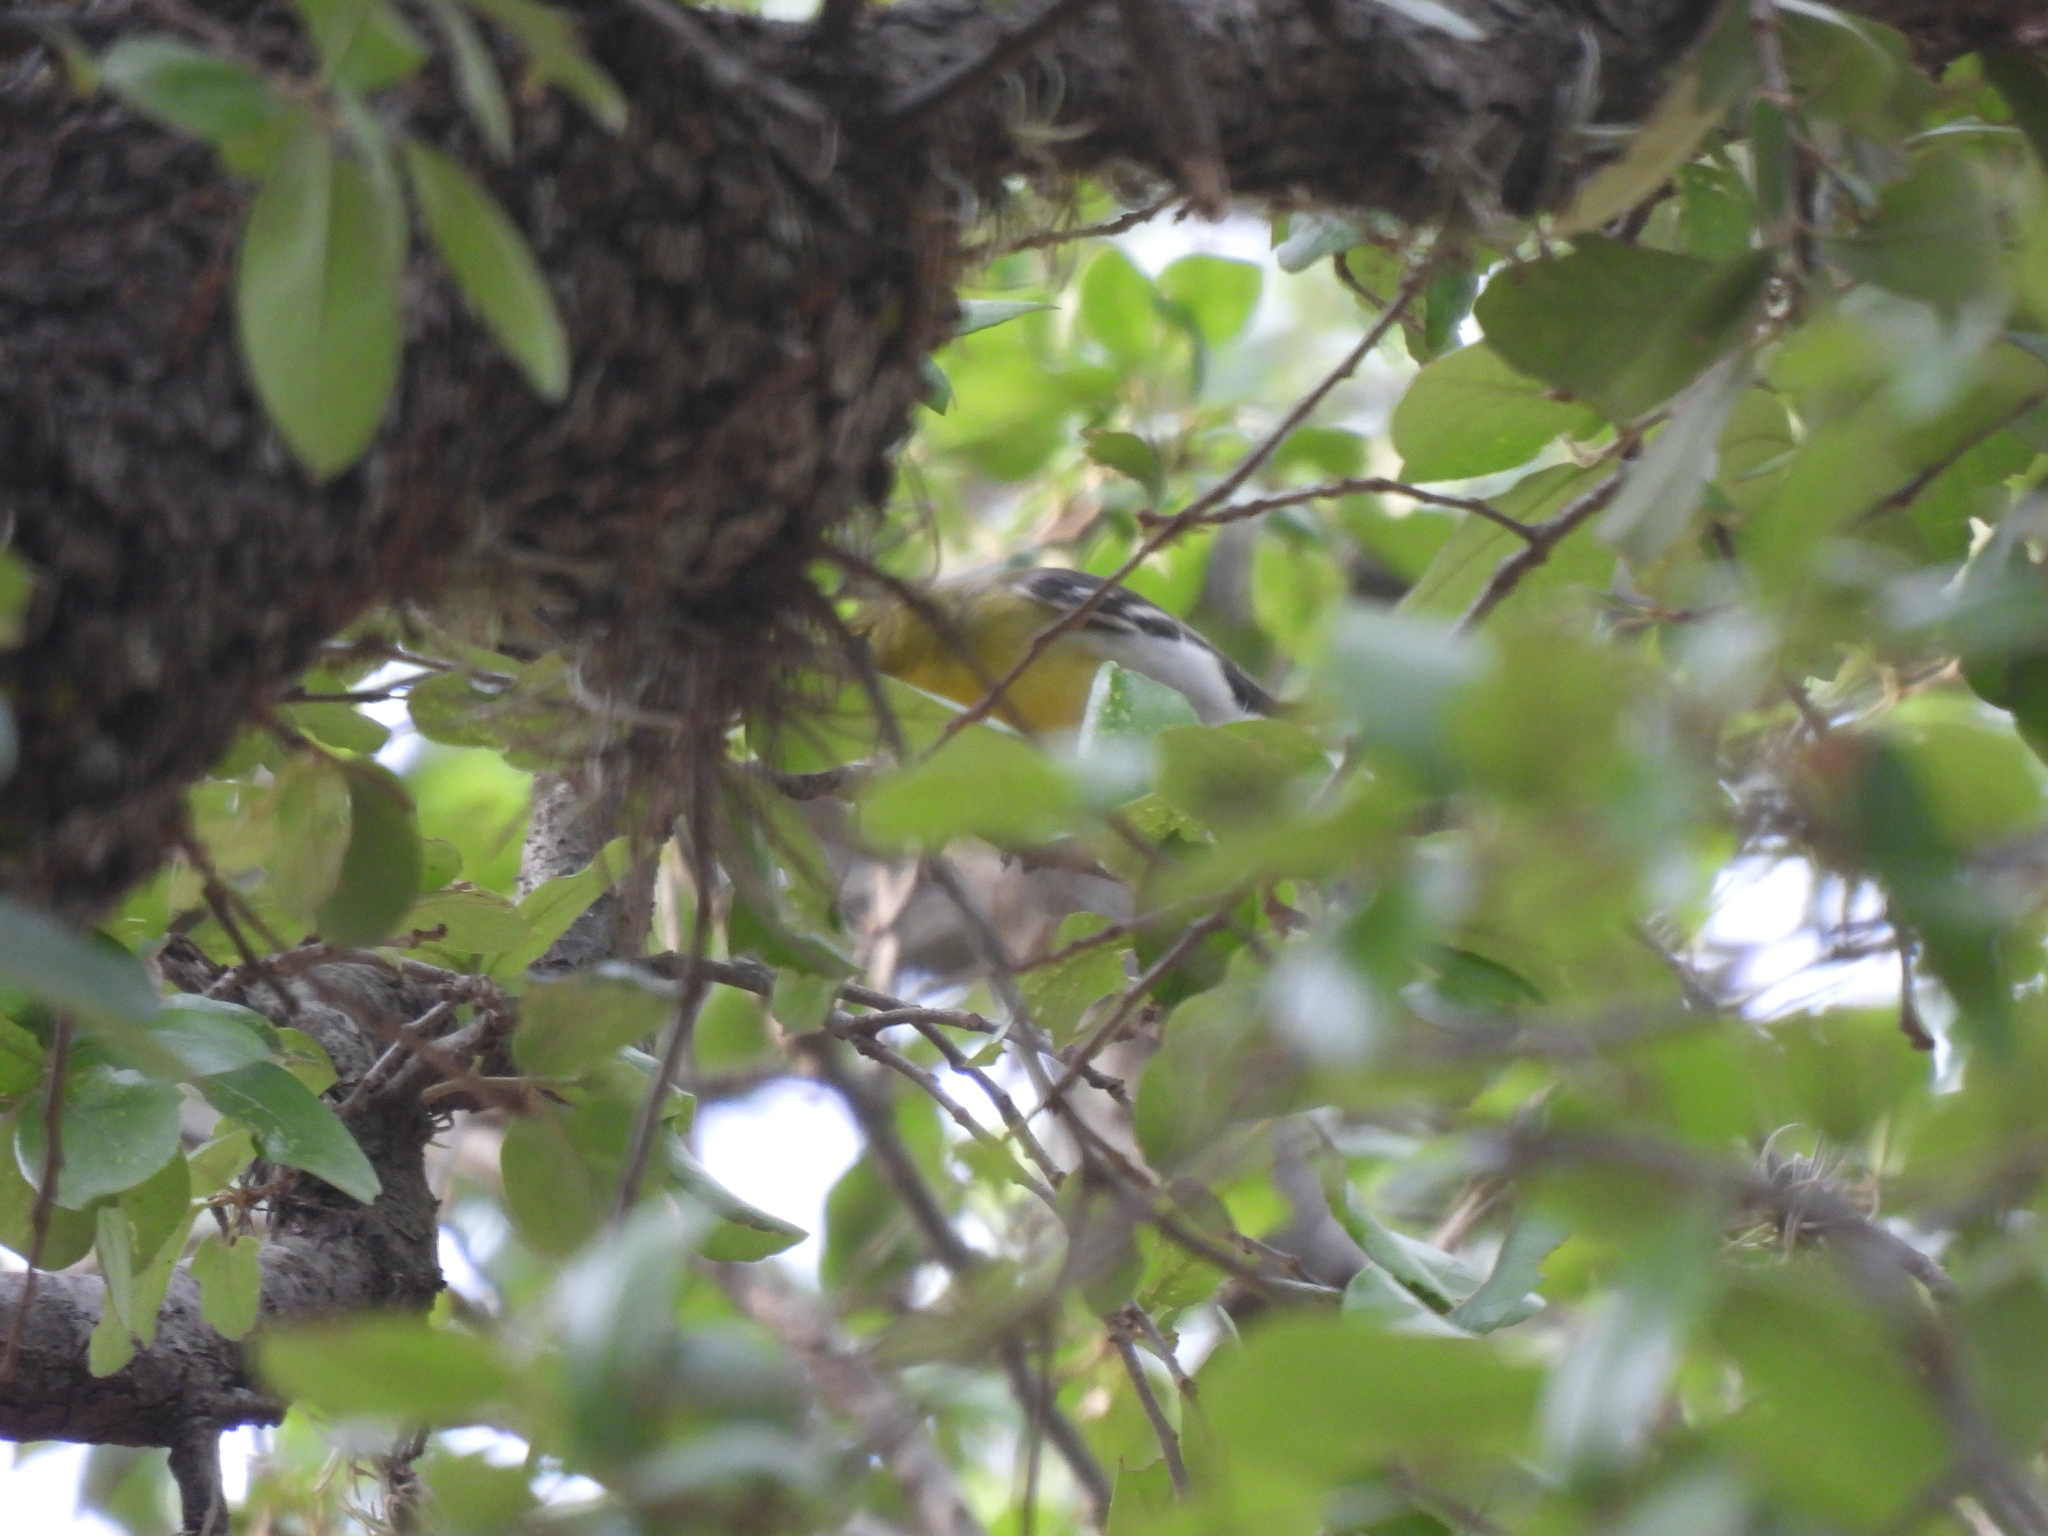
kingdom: Animalia
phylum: Chordata
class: Aves
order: Passeriformes
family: Vireonidae
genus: Vireo
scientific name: Vireo flavifrons
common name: Yellow-throated vireo
